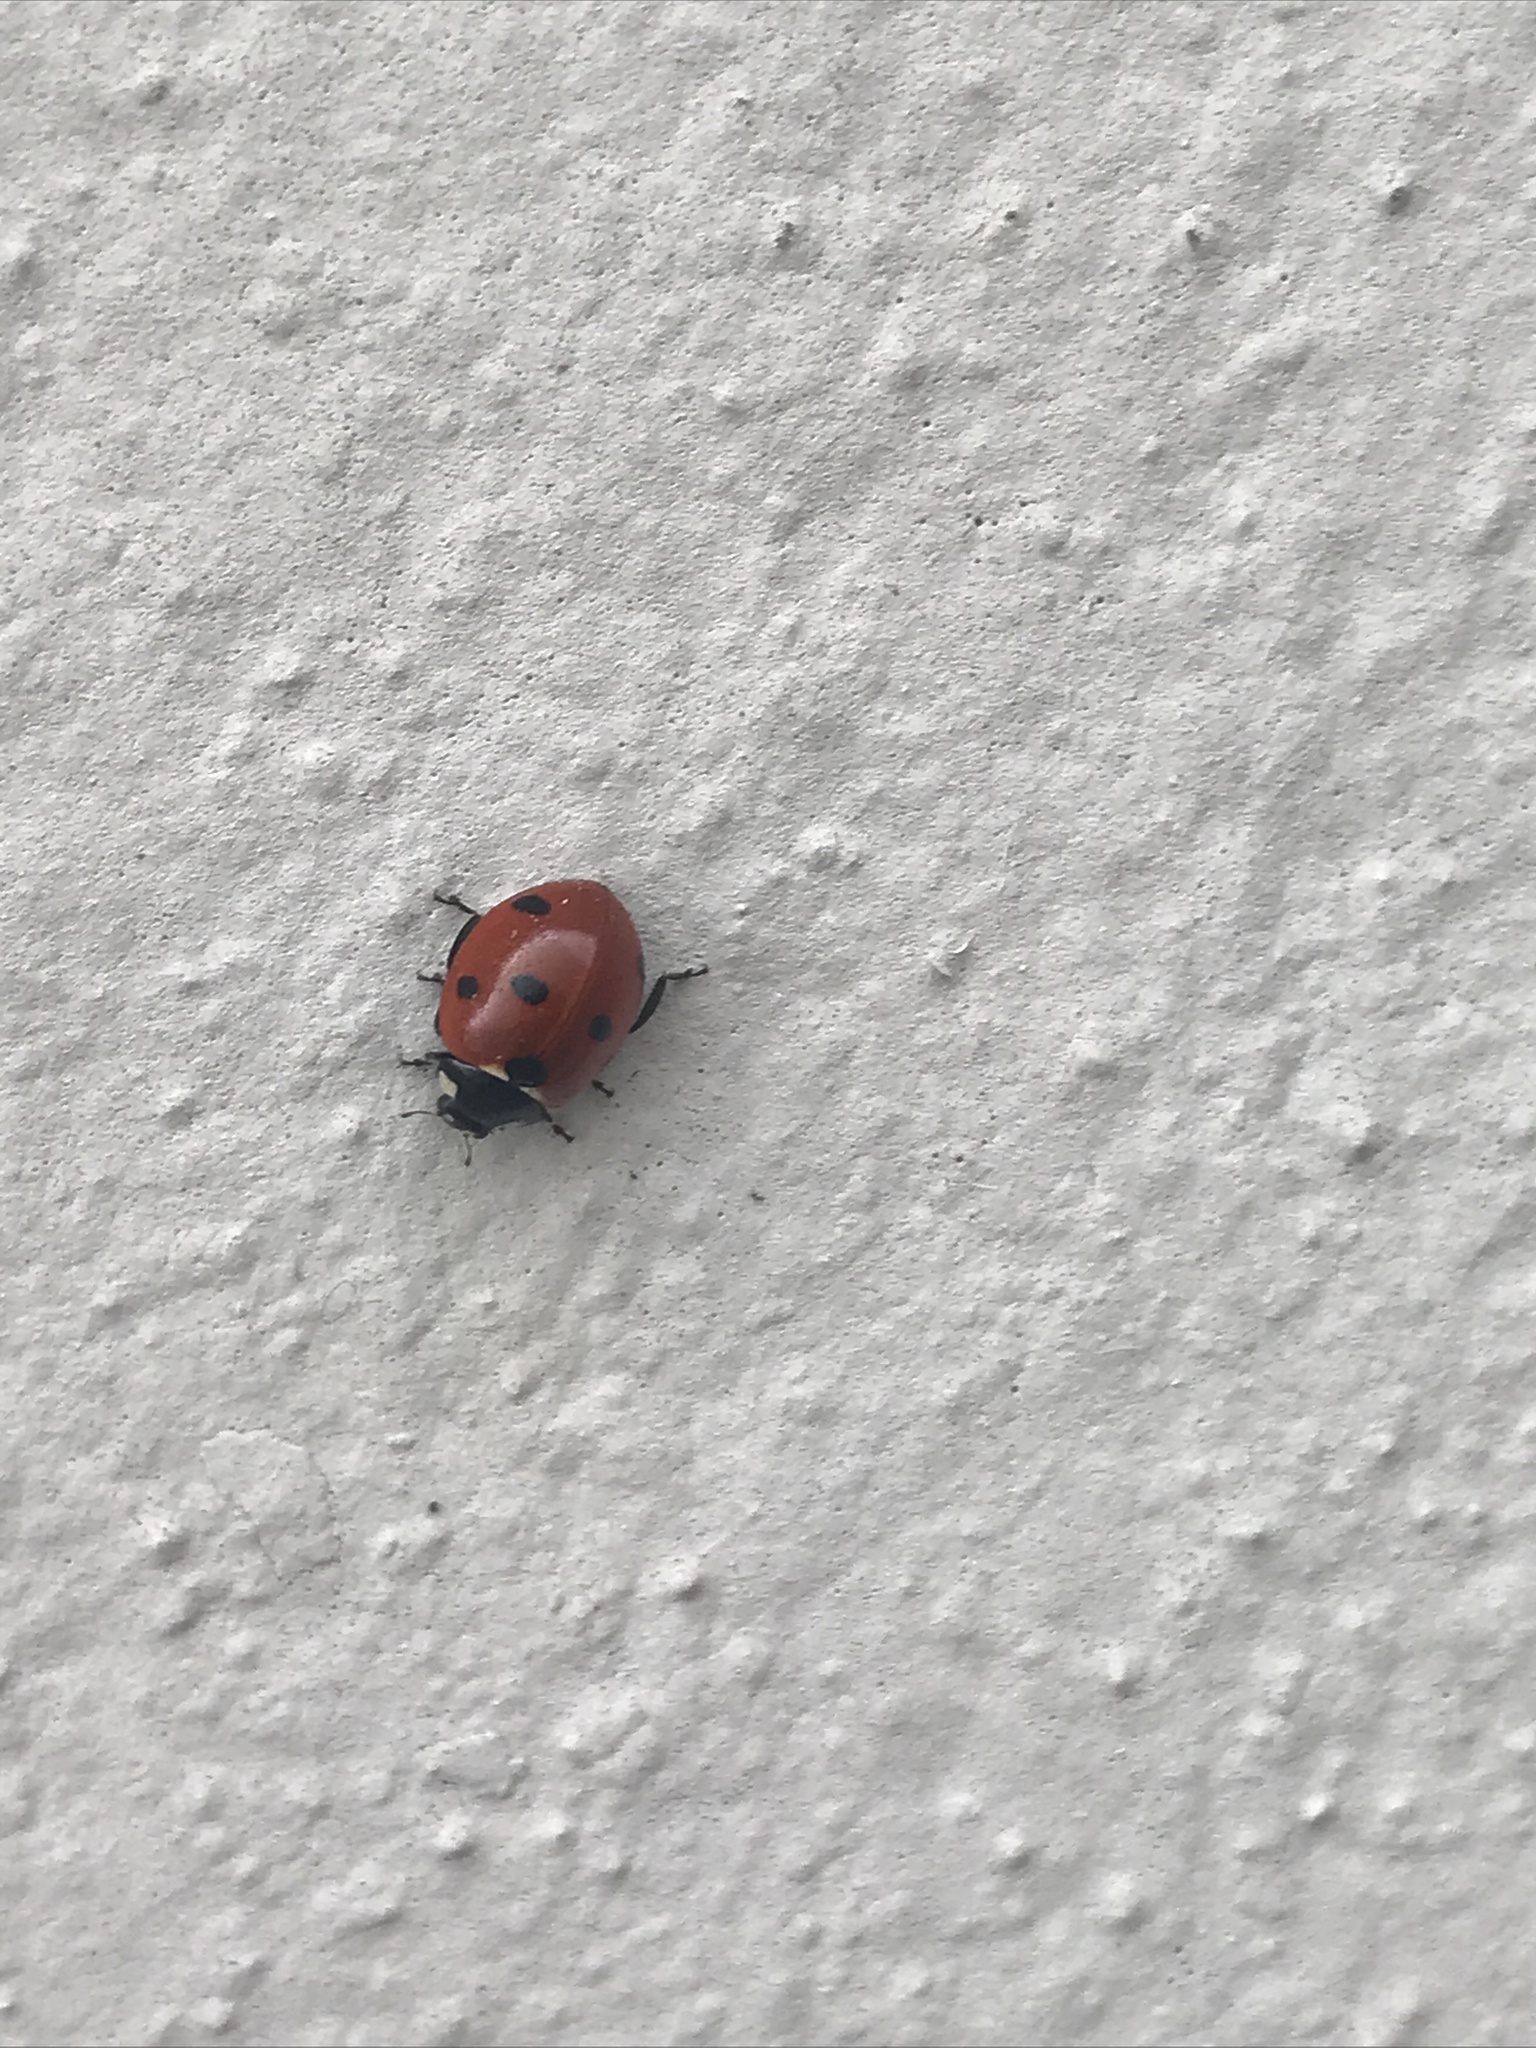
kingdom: Animalia
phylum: Arthropoda
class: Insecta
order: Coleoptera
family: Coccinellidae
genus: Coccinella
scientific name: Coccinella septempunctata
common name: Sevenspotted lady beetle
